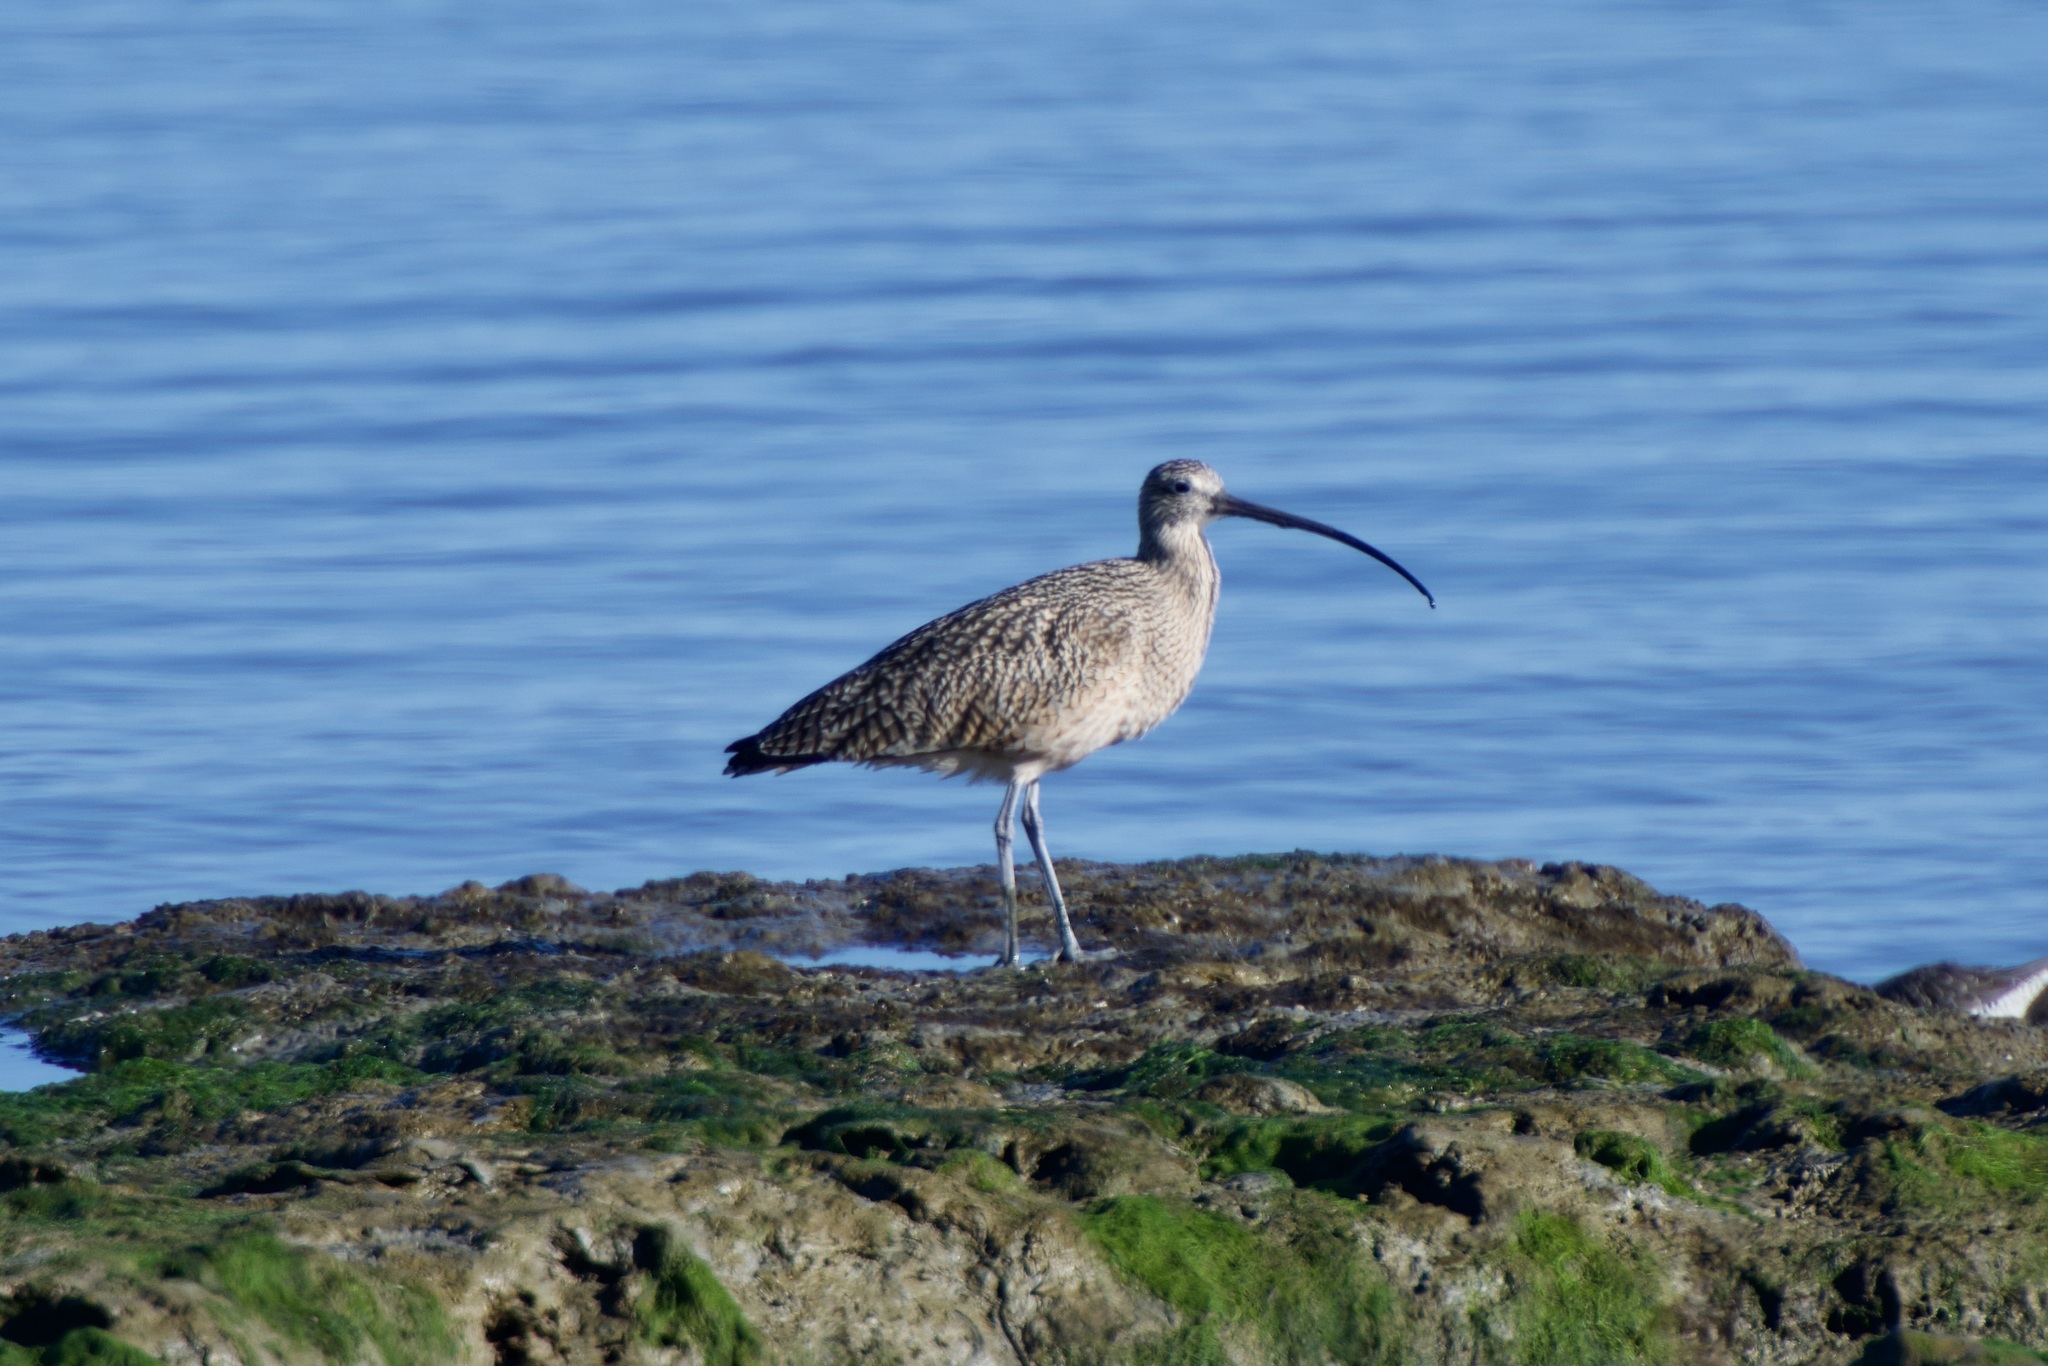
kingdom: Animalia
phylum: Chordata
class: Aves
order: Charadriiformes
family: Scolopacidae
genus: Numenius
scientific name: Numenius americanus
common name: Long-billed curlew
